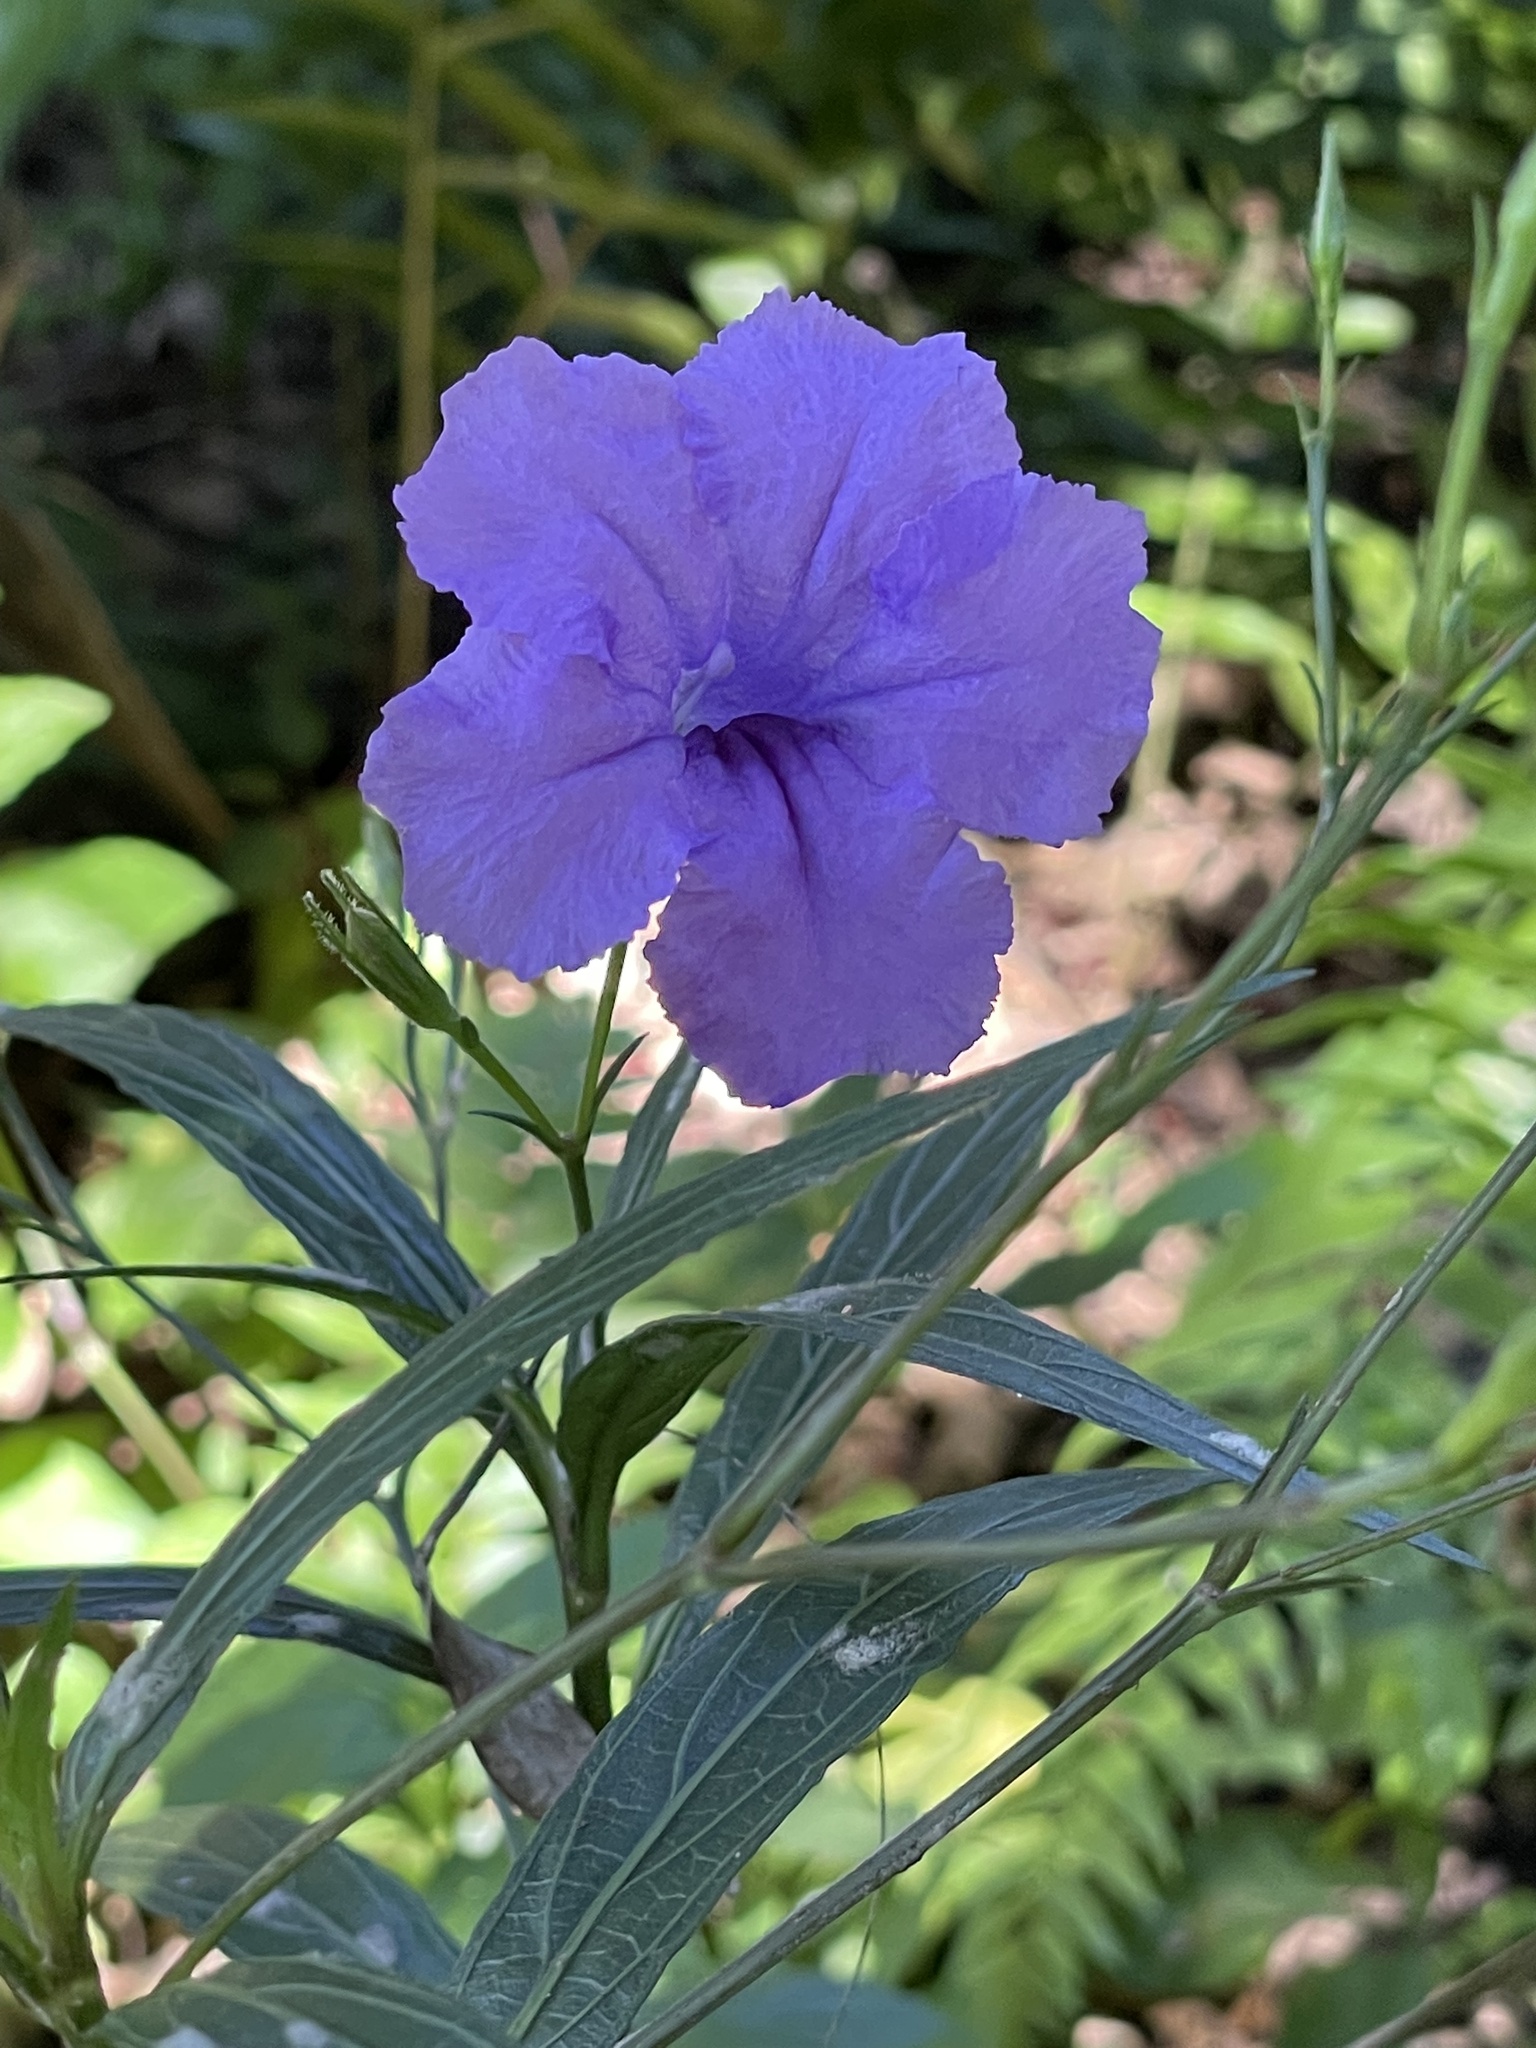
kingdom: Plantae
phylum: Tracheophyta
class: Magnoliopsida
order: Lamiales
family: Acanthaceae
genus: Ruellia
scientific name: Ruellia simplex
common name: Softseed wild petunia
